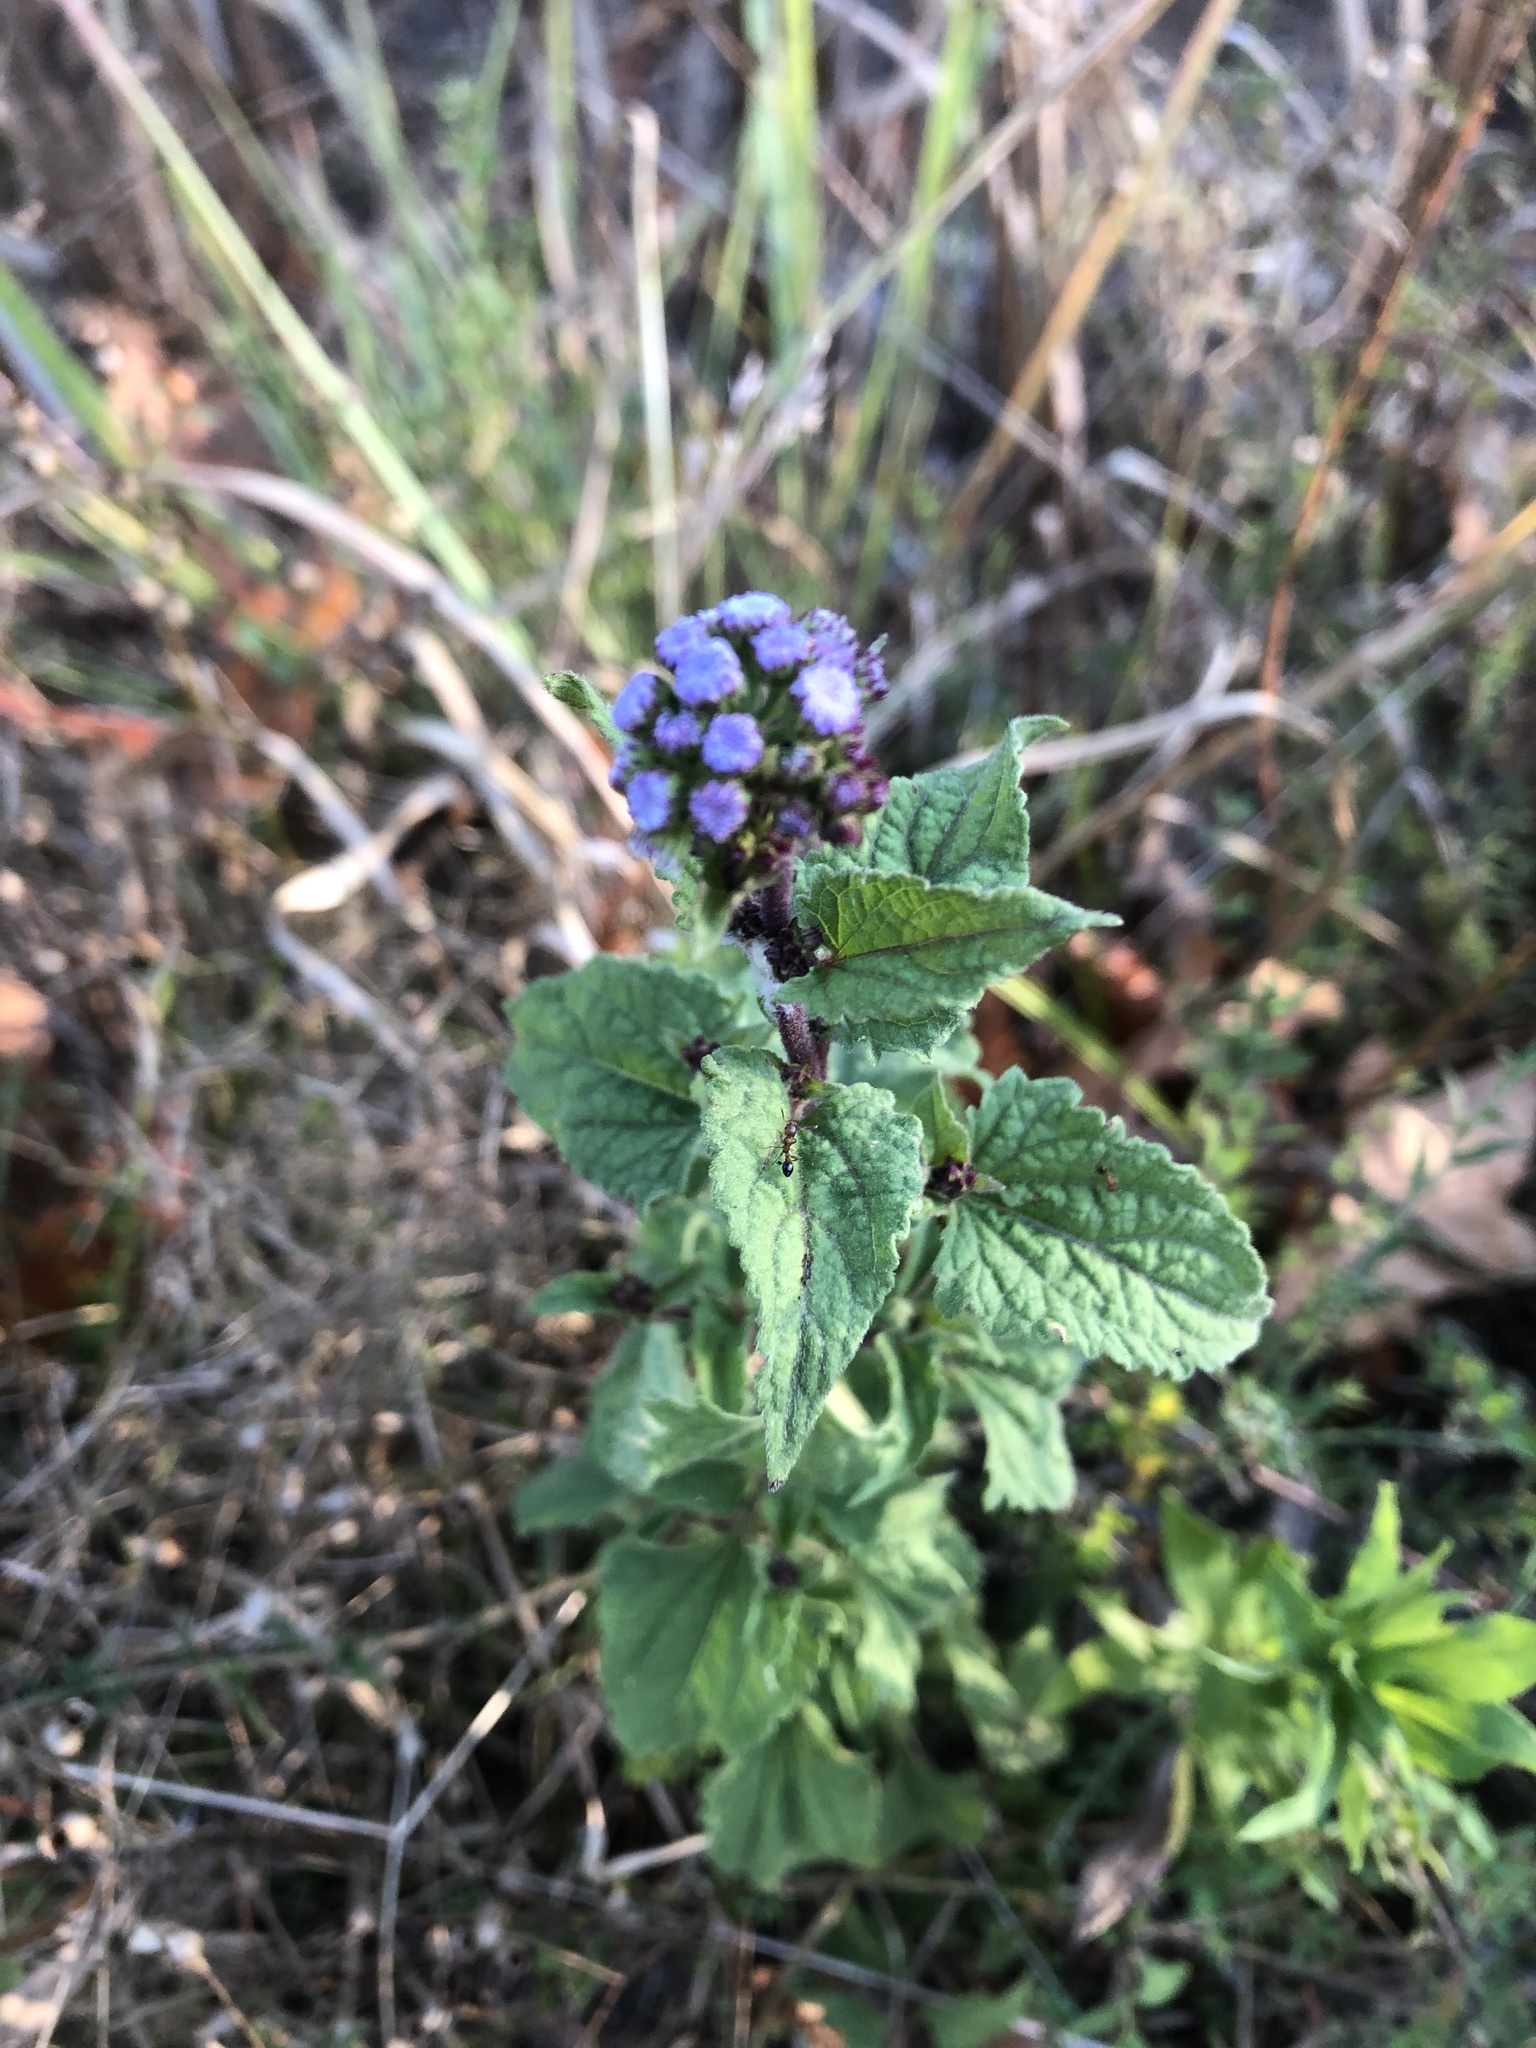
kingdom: Plantae
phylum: Tracheophyta
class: Magnoliopsida
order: Asterales
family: Asteraceae
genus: Conoclinium
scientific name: Conoclinium coelestinum
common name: Blue mistflower
